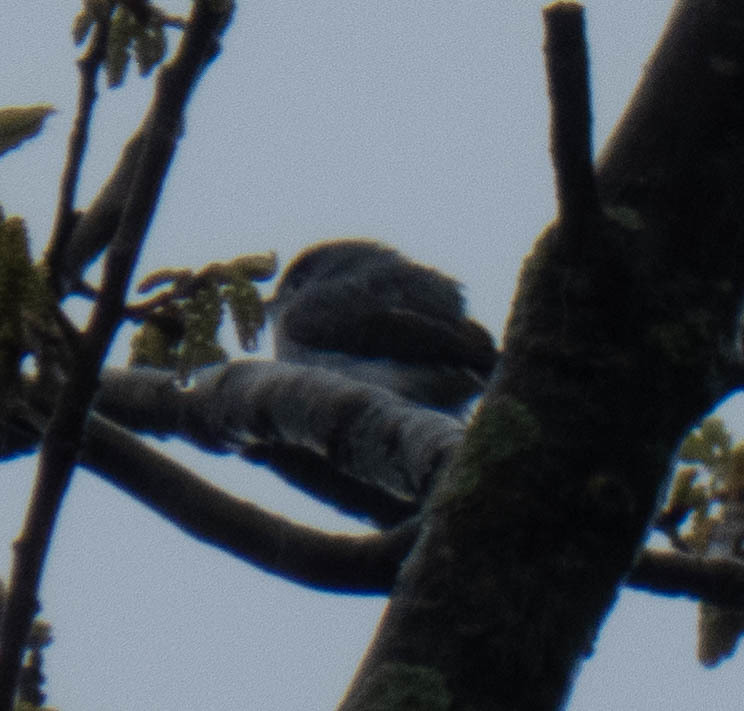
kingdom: Animalia
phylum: Chordata
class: Aves
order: Passeriformes
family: Polioptilidae
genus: Polioptila
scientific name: Polioptila caerulea
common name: Blue-gray gnatcatcher
